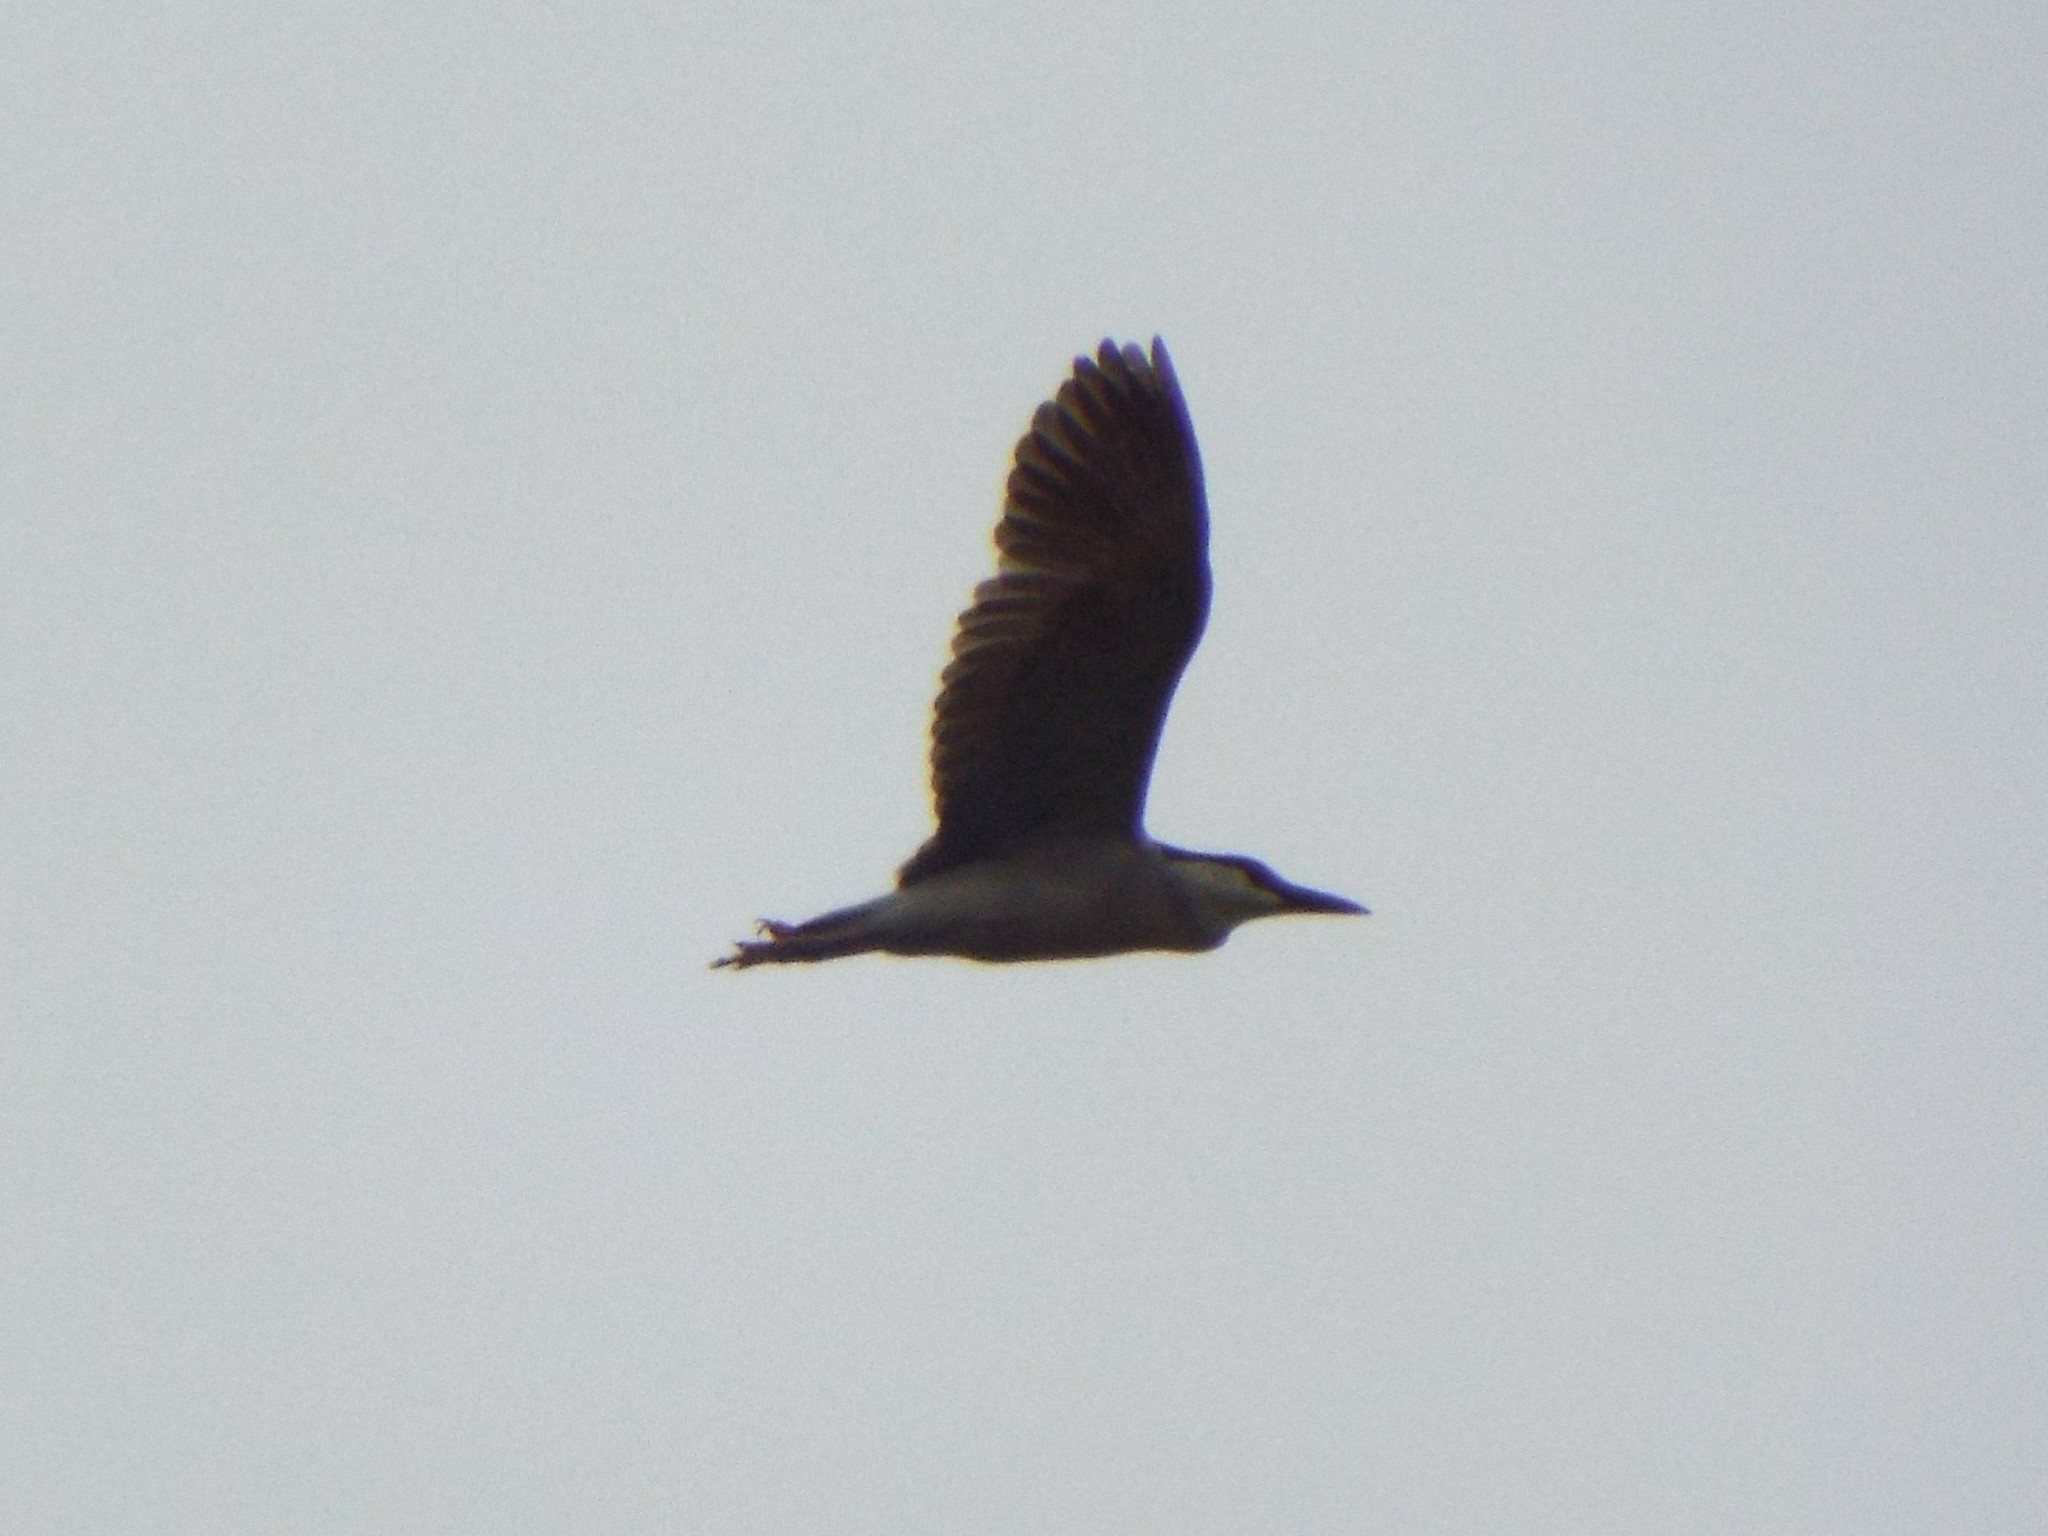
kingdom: Animalia
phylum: Chordata
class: Aves
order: Pelecaniformes
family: Ardeidae
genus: Nycticorax
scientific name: Nycticorax nycticorax
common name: Black-crowned night heron
